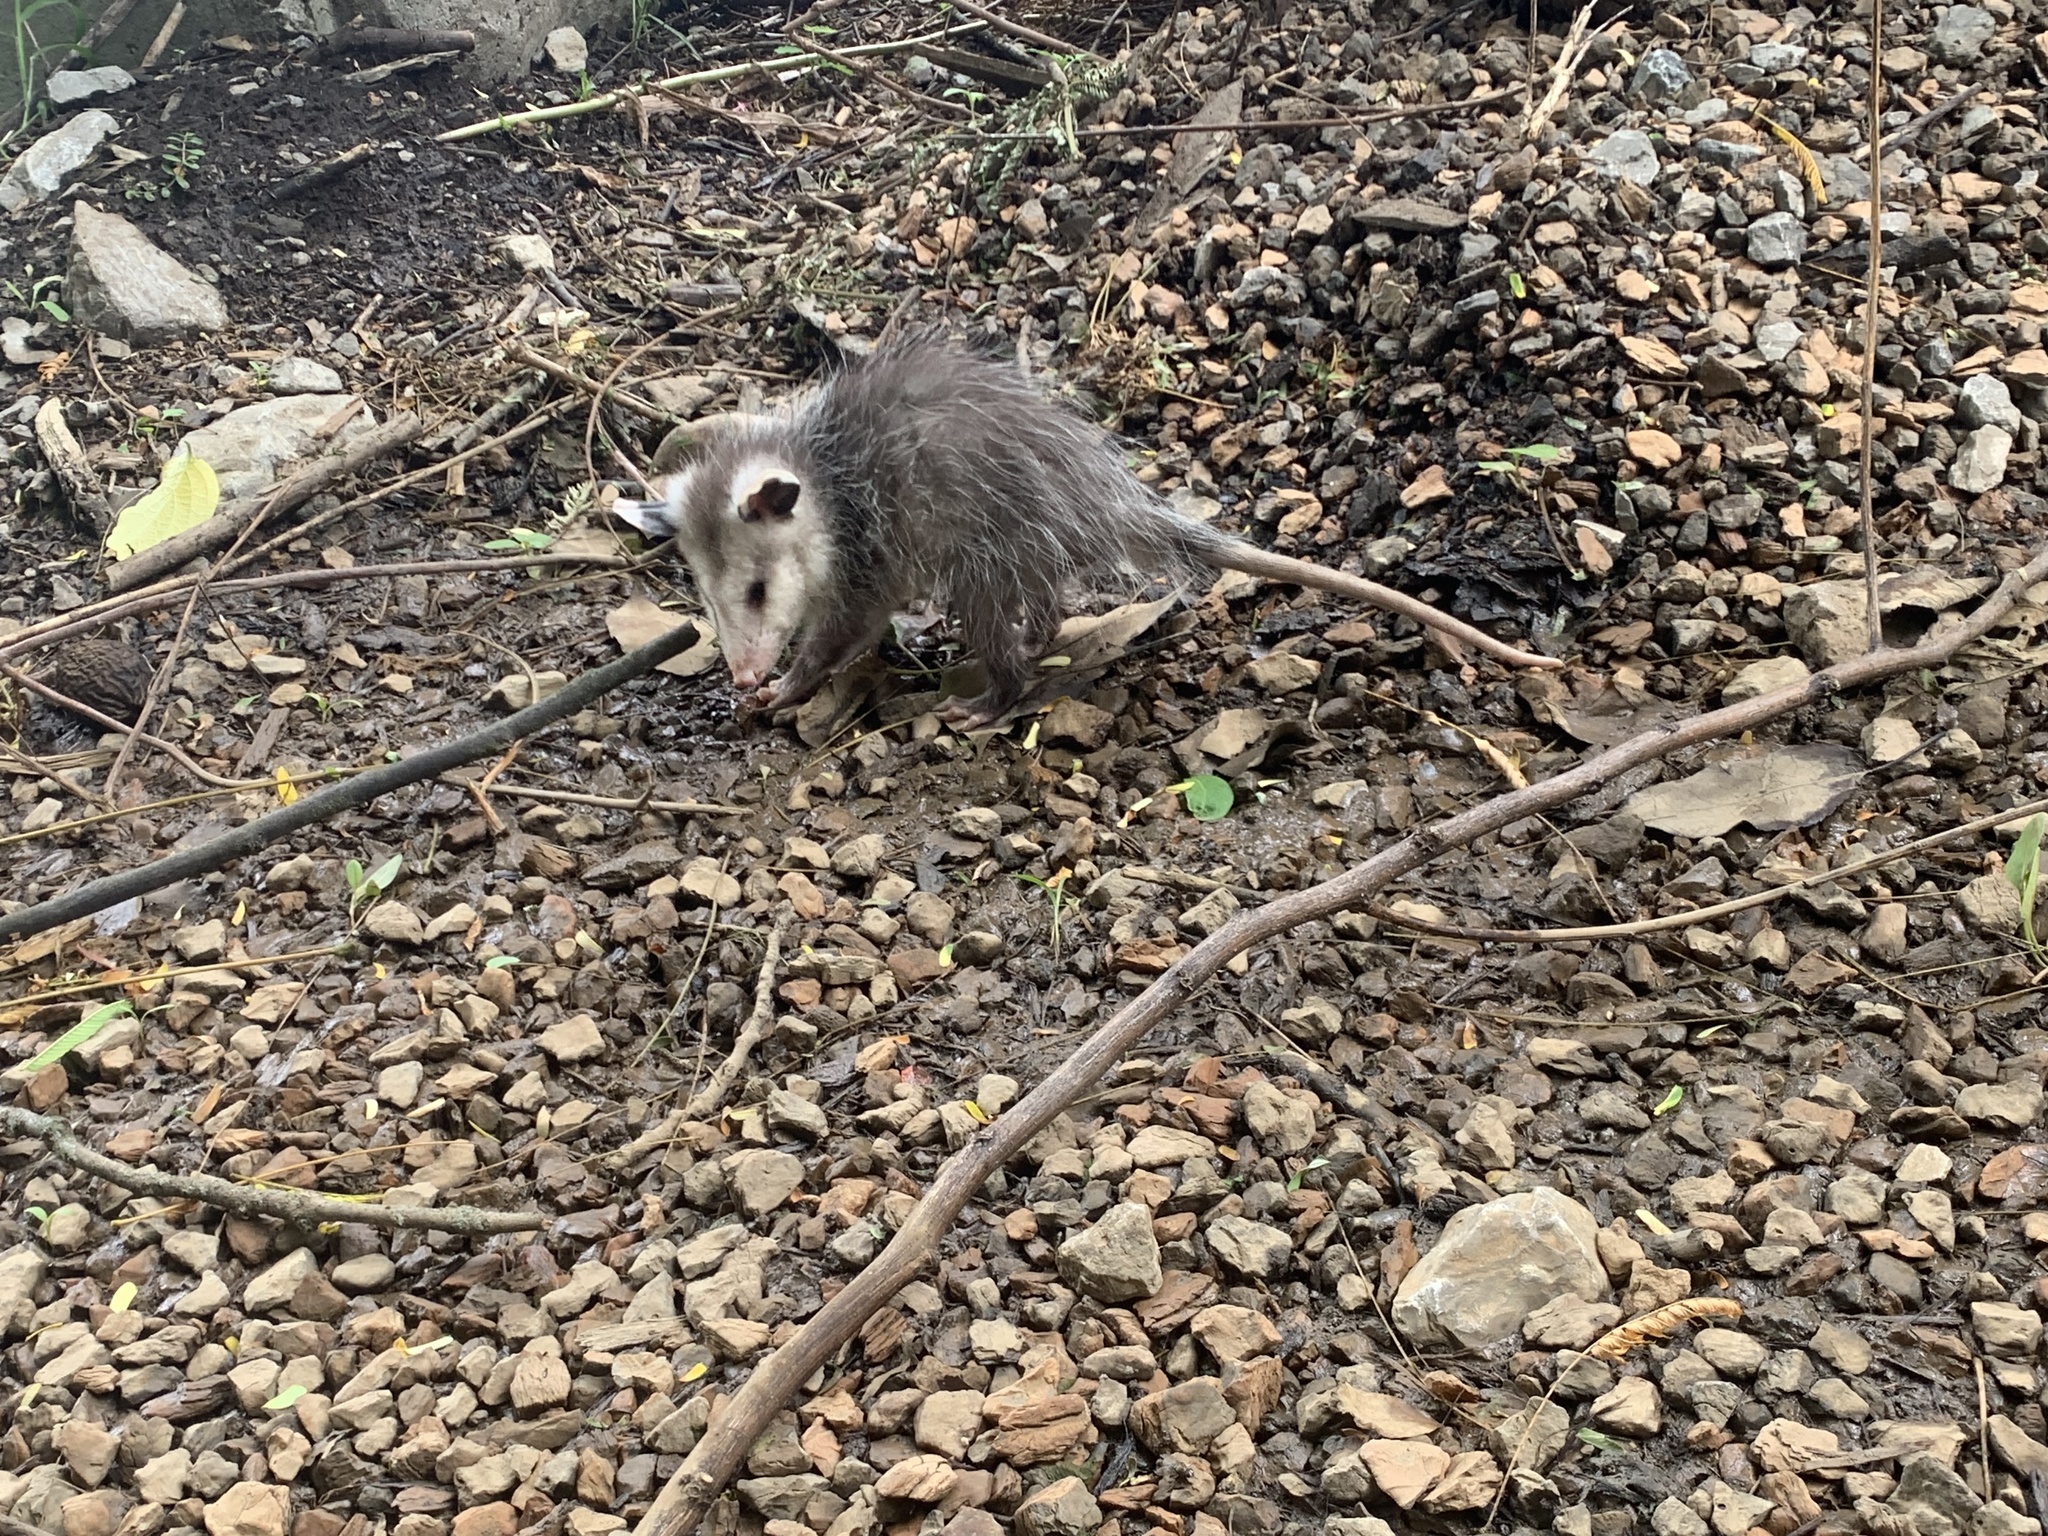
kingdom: Animalia
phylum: Chordata
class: Mammalia
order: Didelphimorphia
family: Didelphidae
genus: Didelphis
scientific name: Didelphis virginiana
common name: Virginia opossum
